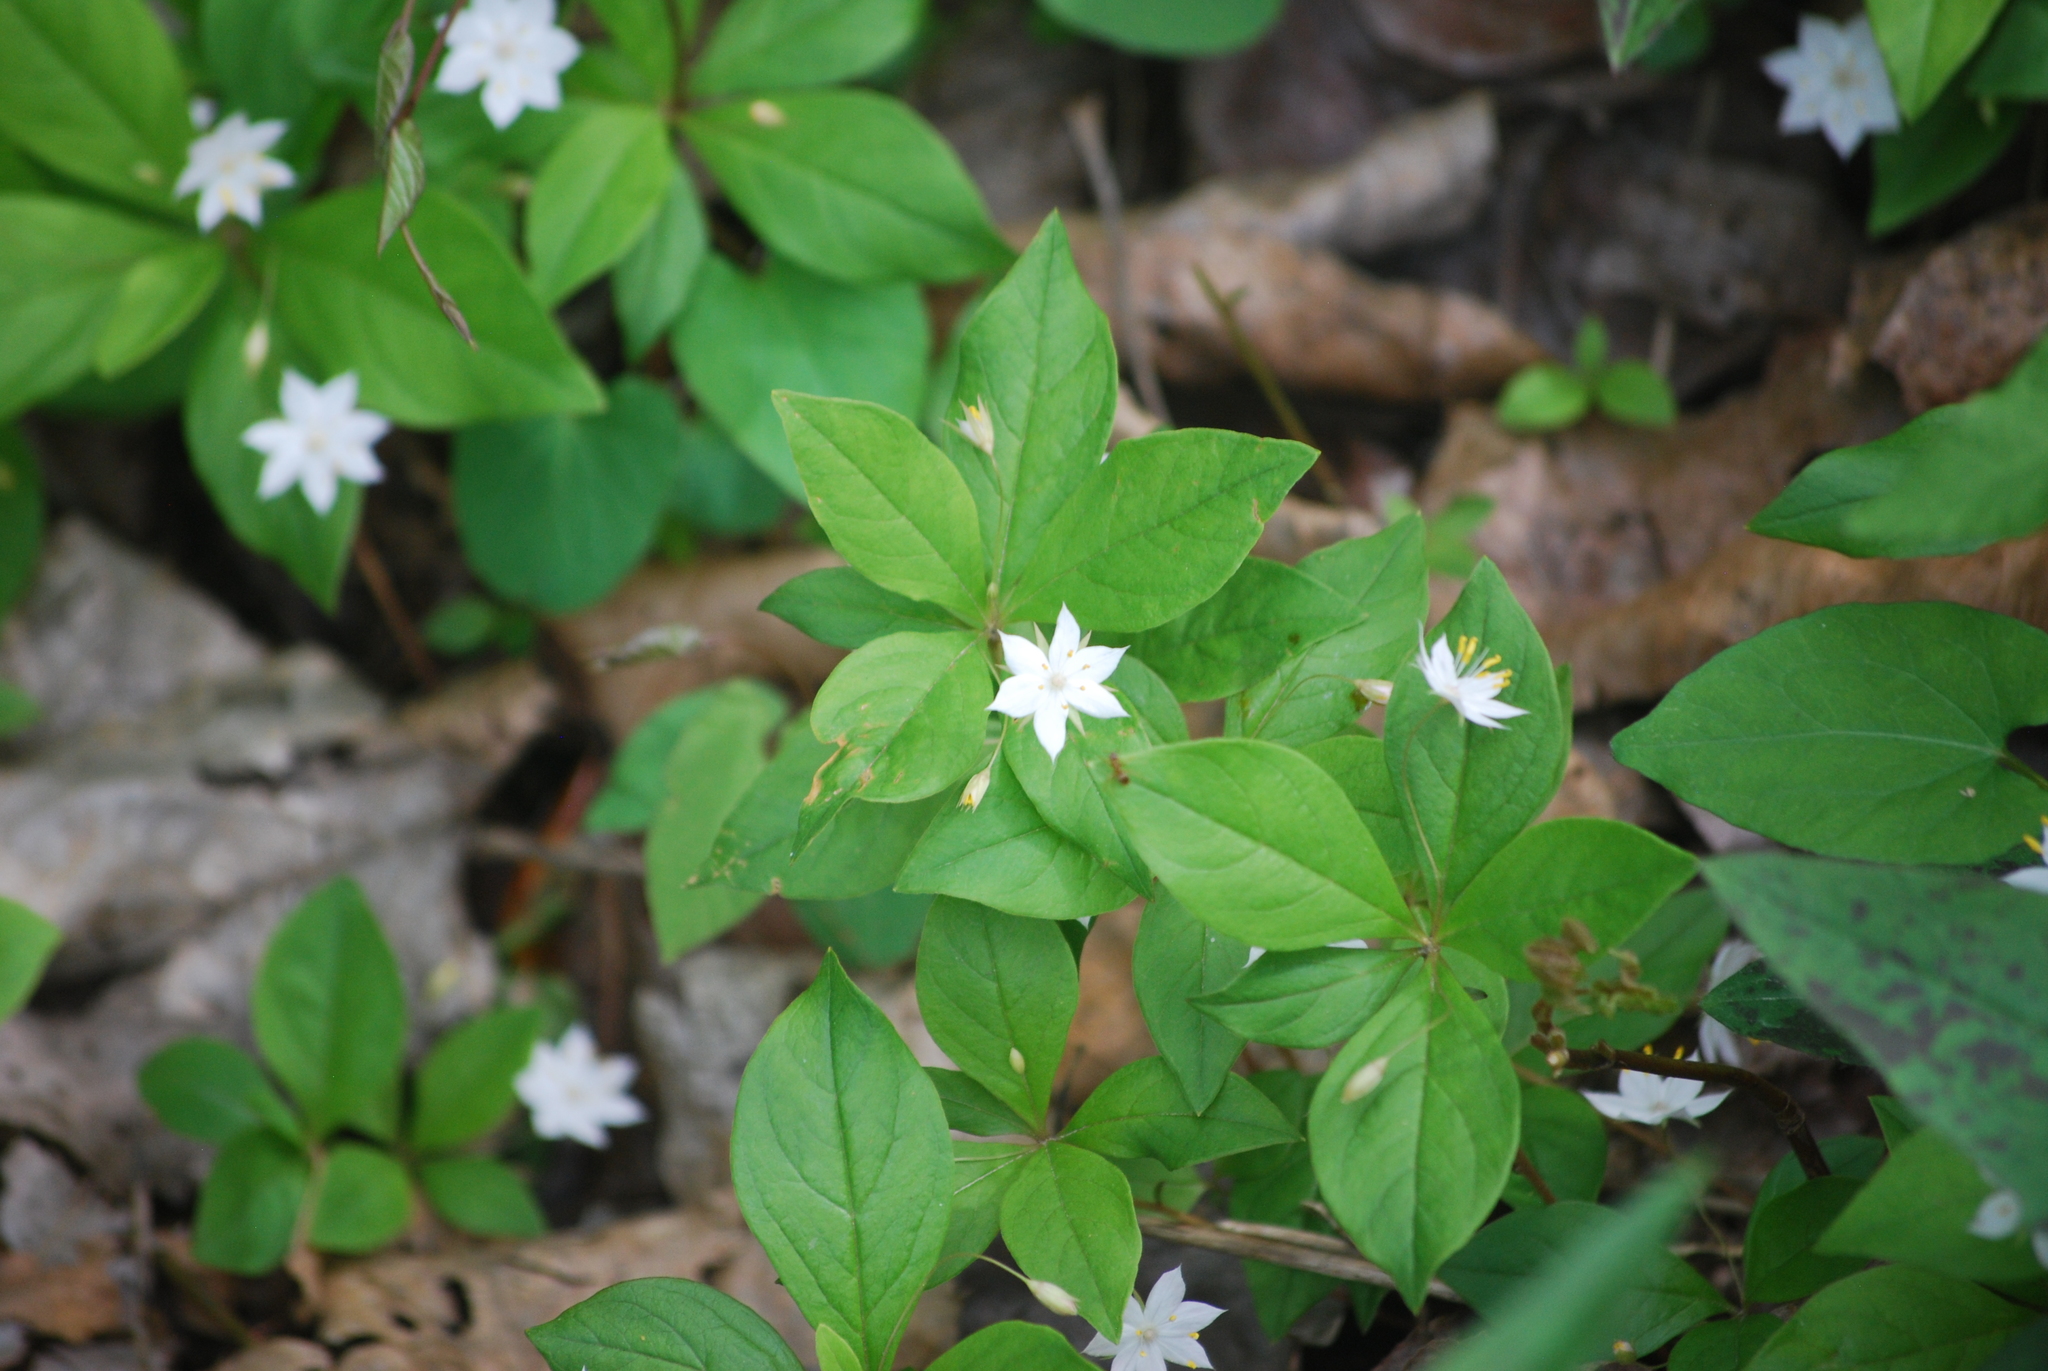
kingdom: Plantae
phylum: Tracheophyta
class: Magnoliopsida
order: Ericales
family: Primulaceae
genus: Lysimachia
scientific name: Lysimachia latifolia
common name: Pacific starflower
